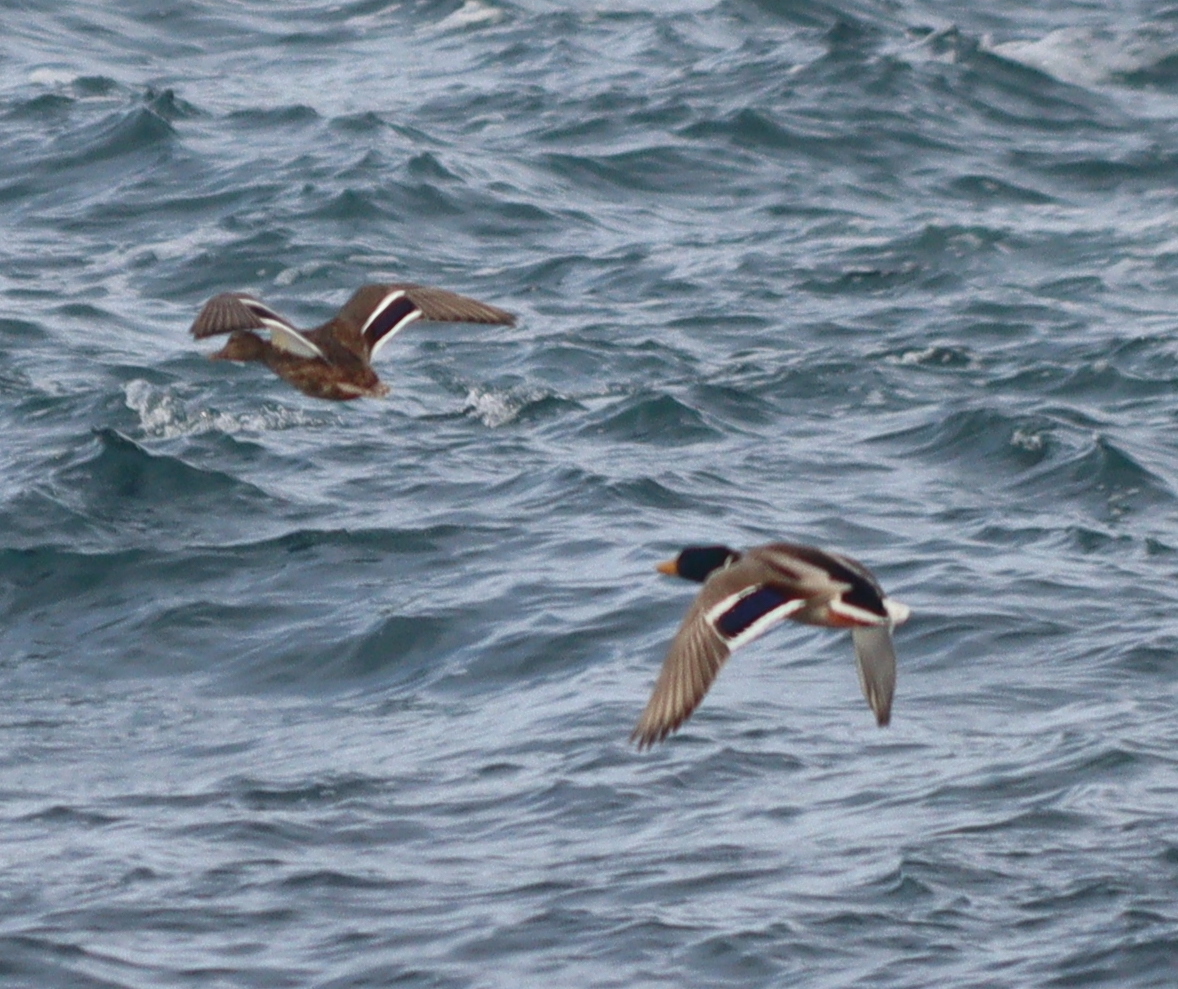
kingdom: Animalia
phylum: Chordata
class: Aves
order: Anseriformes
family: Anatidae
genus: Anas
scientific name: Anas platyrhynchos
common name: Mallard
